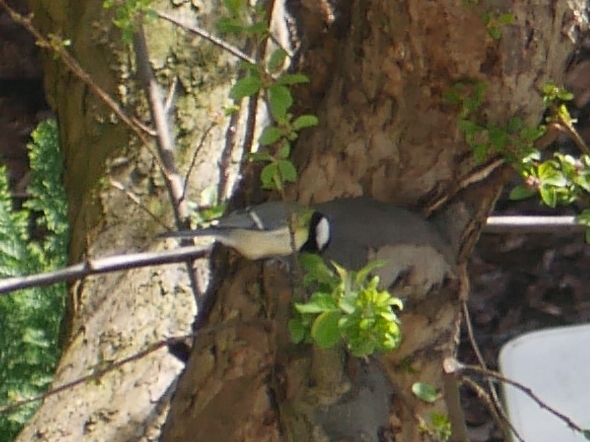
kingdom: Animalia
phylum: Chordata
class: Aves
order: Passeriformes
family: Paridae
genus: Parus
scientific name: Parus major
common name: Great tit
